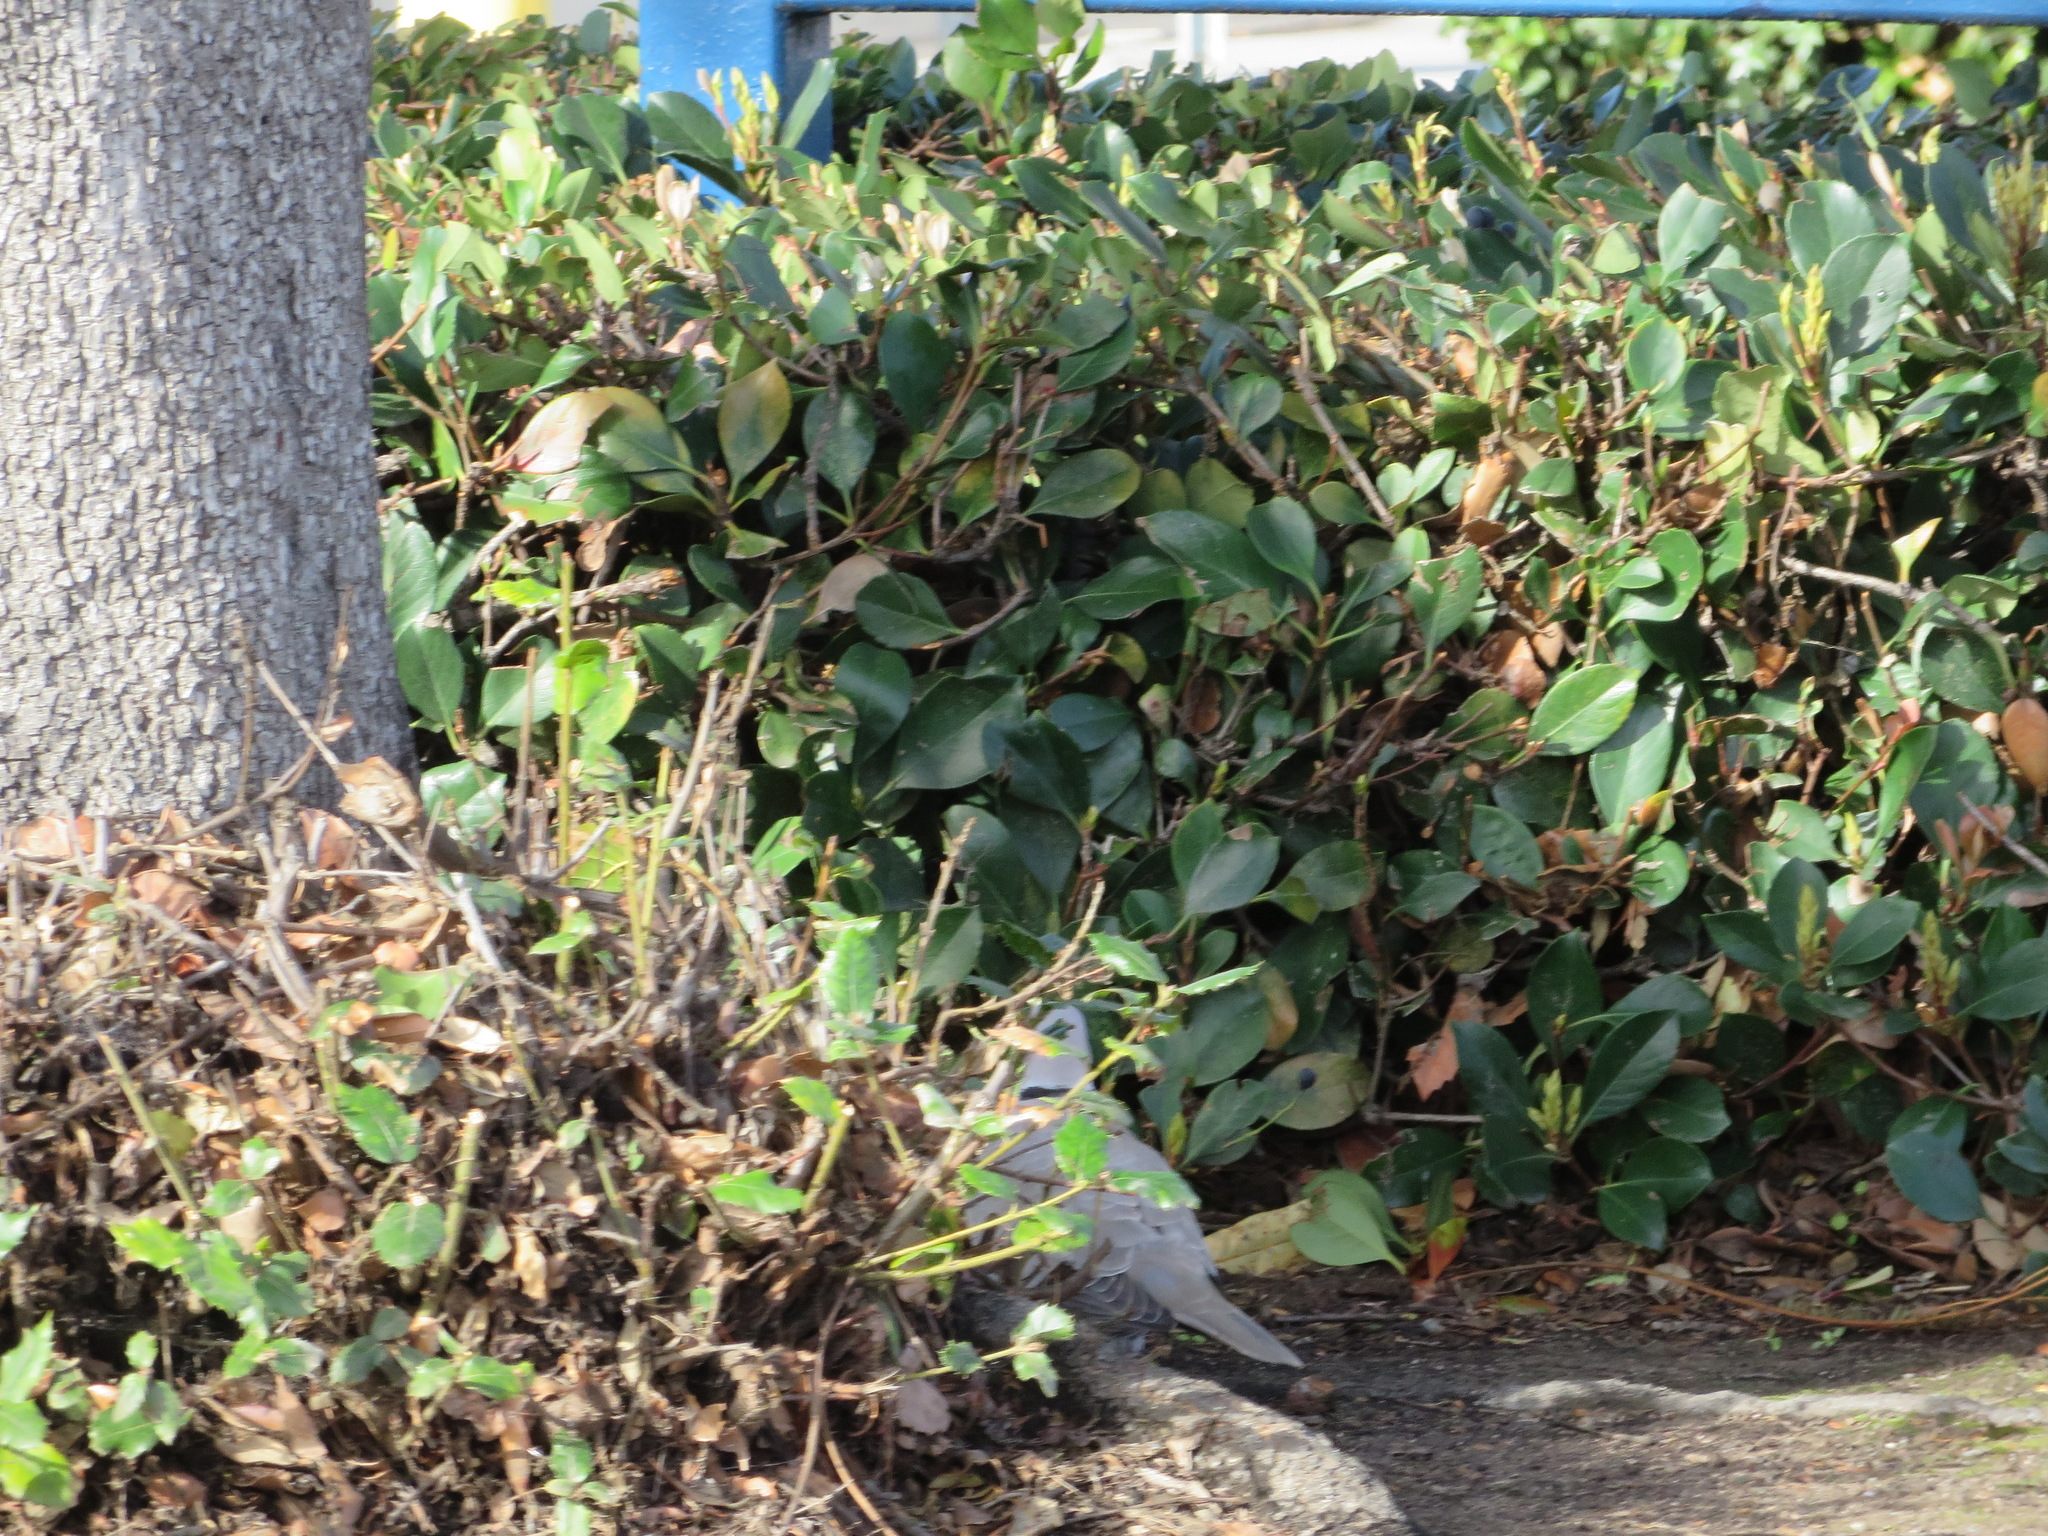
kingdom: Animalia
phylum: Chordata
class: Aves
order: Columbiformes
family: Columbidae
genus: Streptopelia
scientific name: Streptopelia decaocto
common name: Eurasian collared dove
